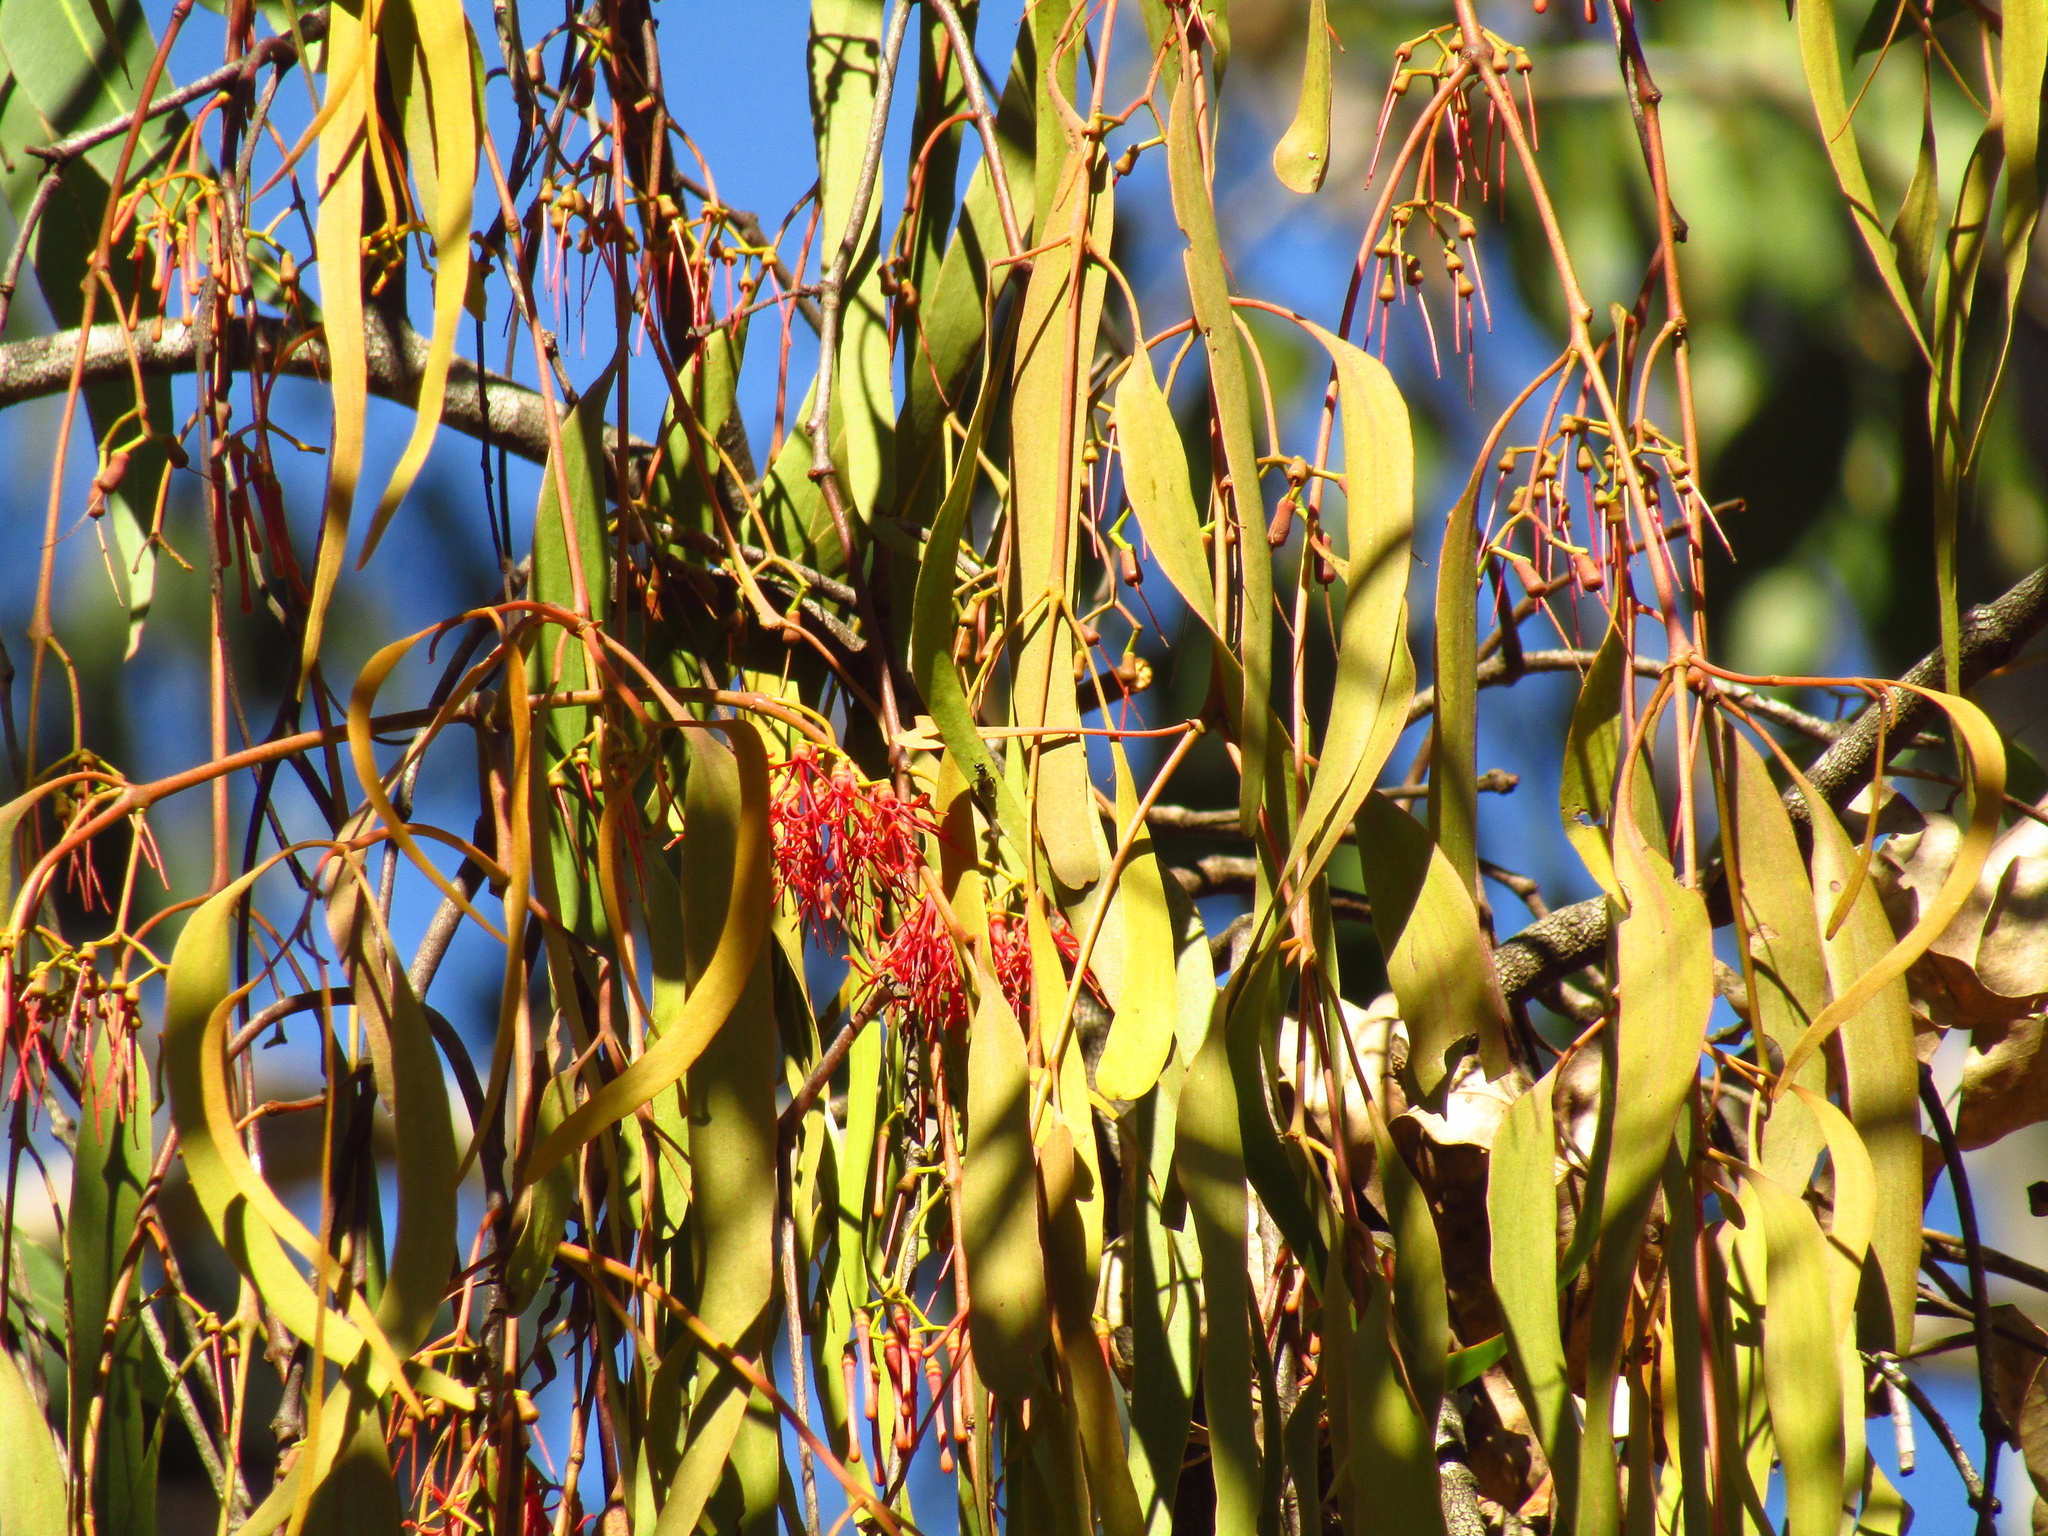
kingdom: Plantae
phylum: Tracheophyta
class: Magnoliopsida
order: Santalales
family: Loranthaceae
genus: Amyema
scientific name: Amyema miquelii
